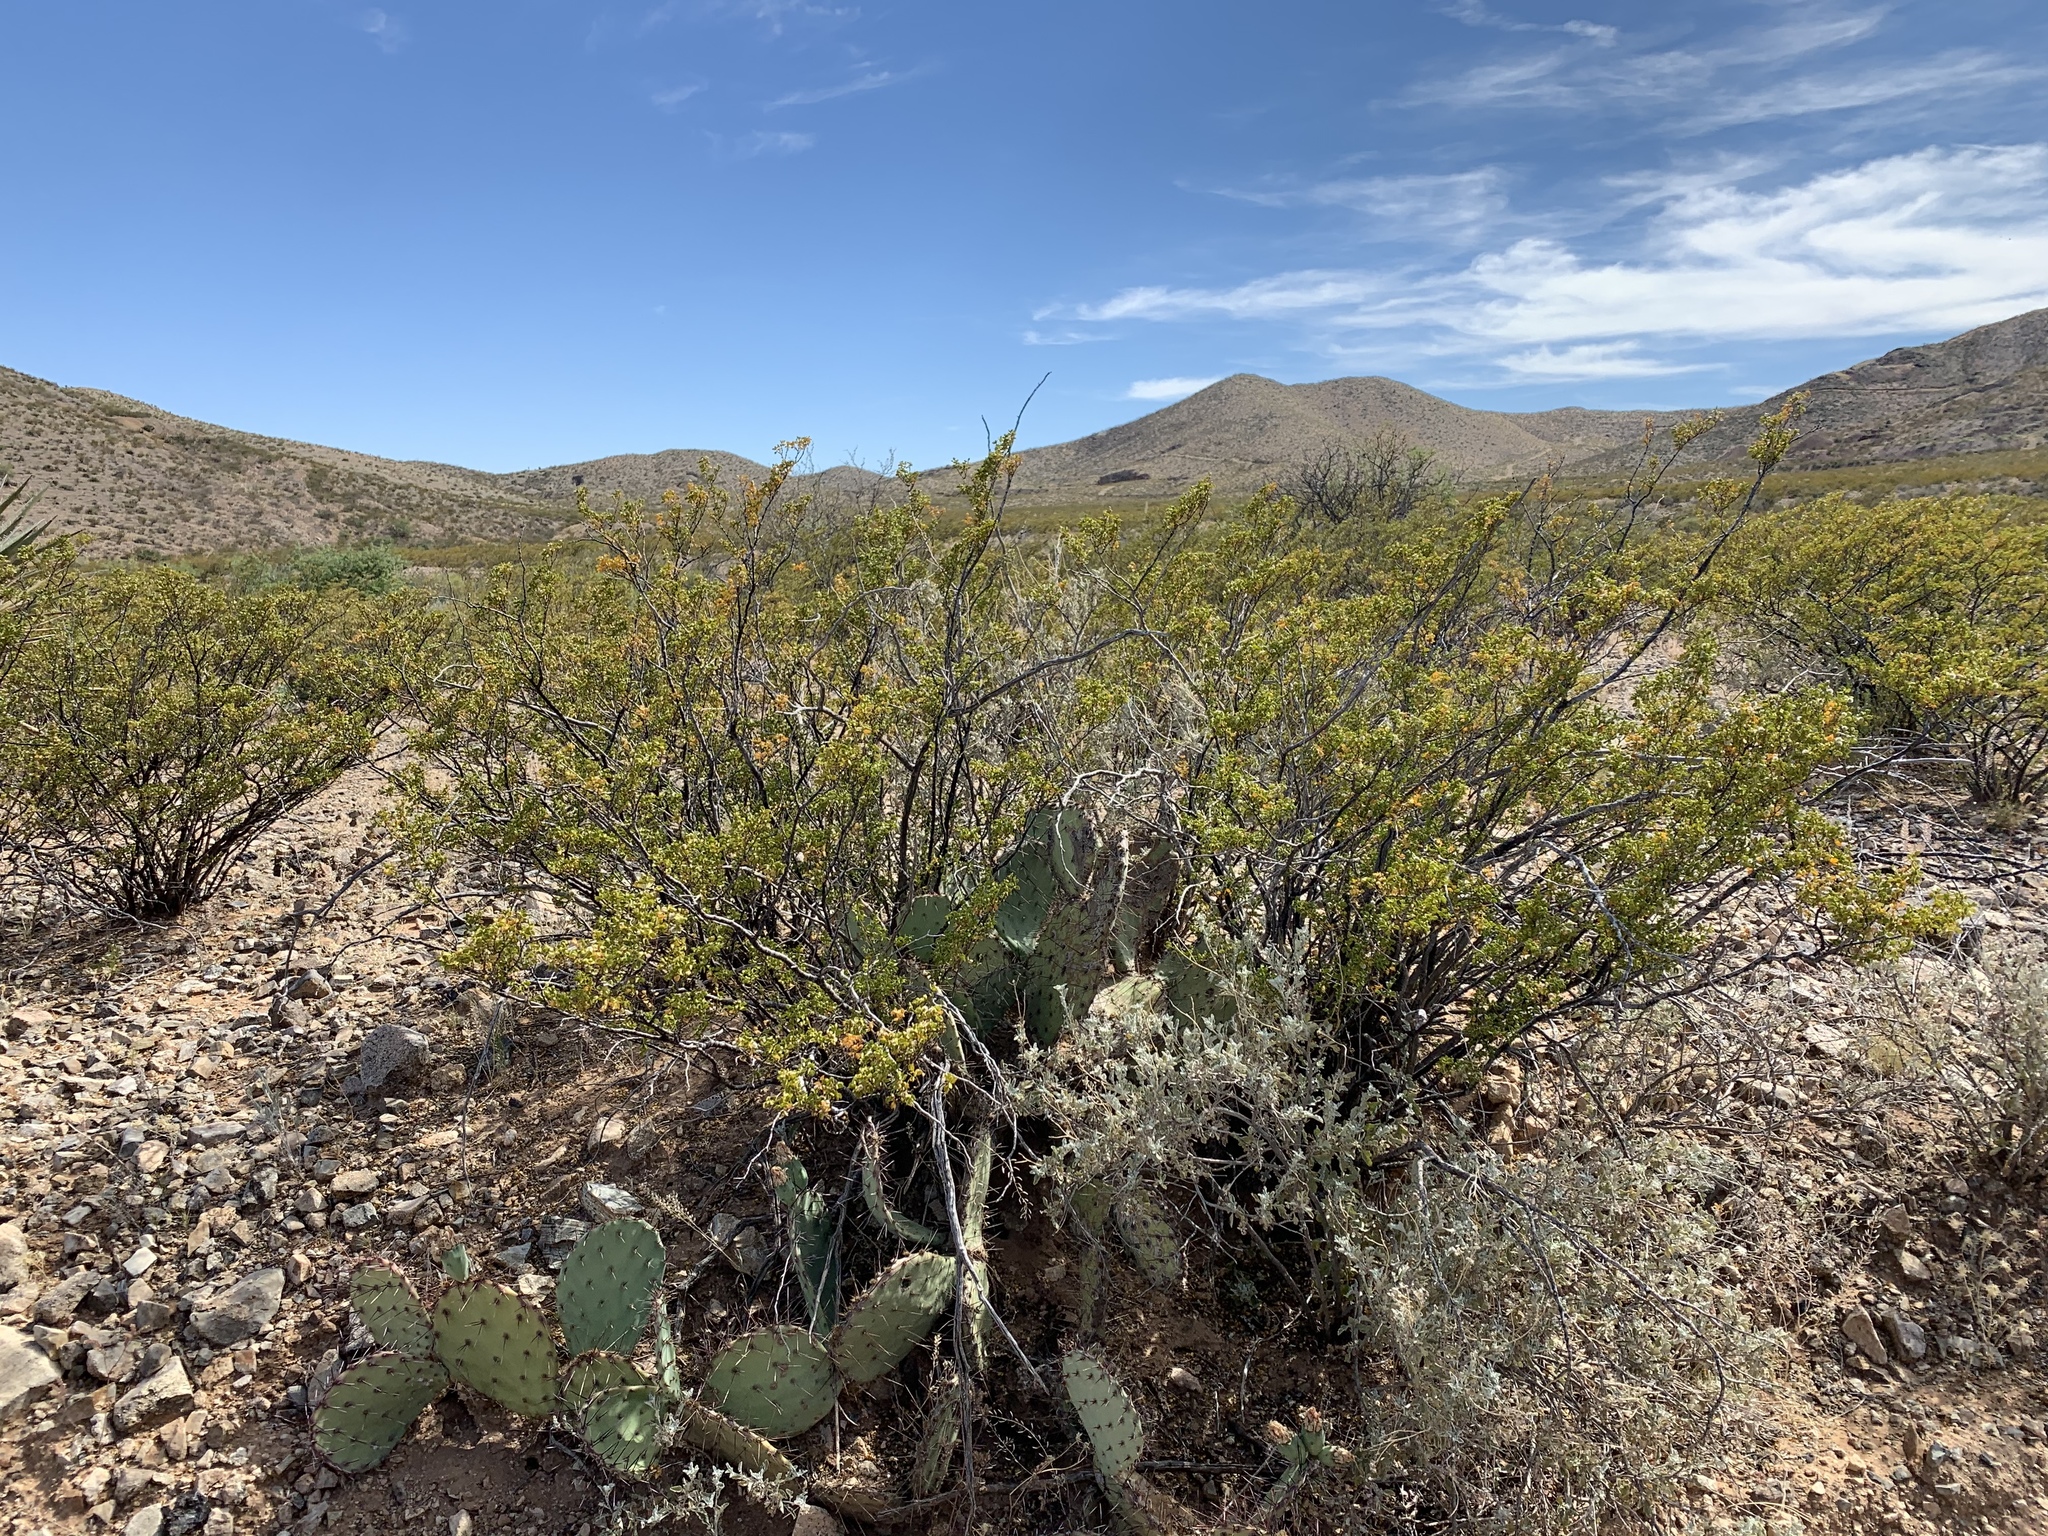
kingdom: Plantae
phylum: Tracheophyta
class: Magnoliopsida
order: Zygophyllales
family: Zygophyllaceae
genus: Larrea
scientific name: Larrea tridentata
